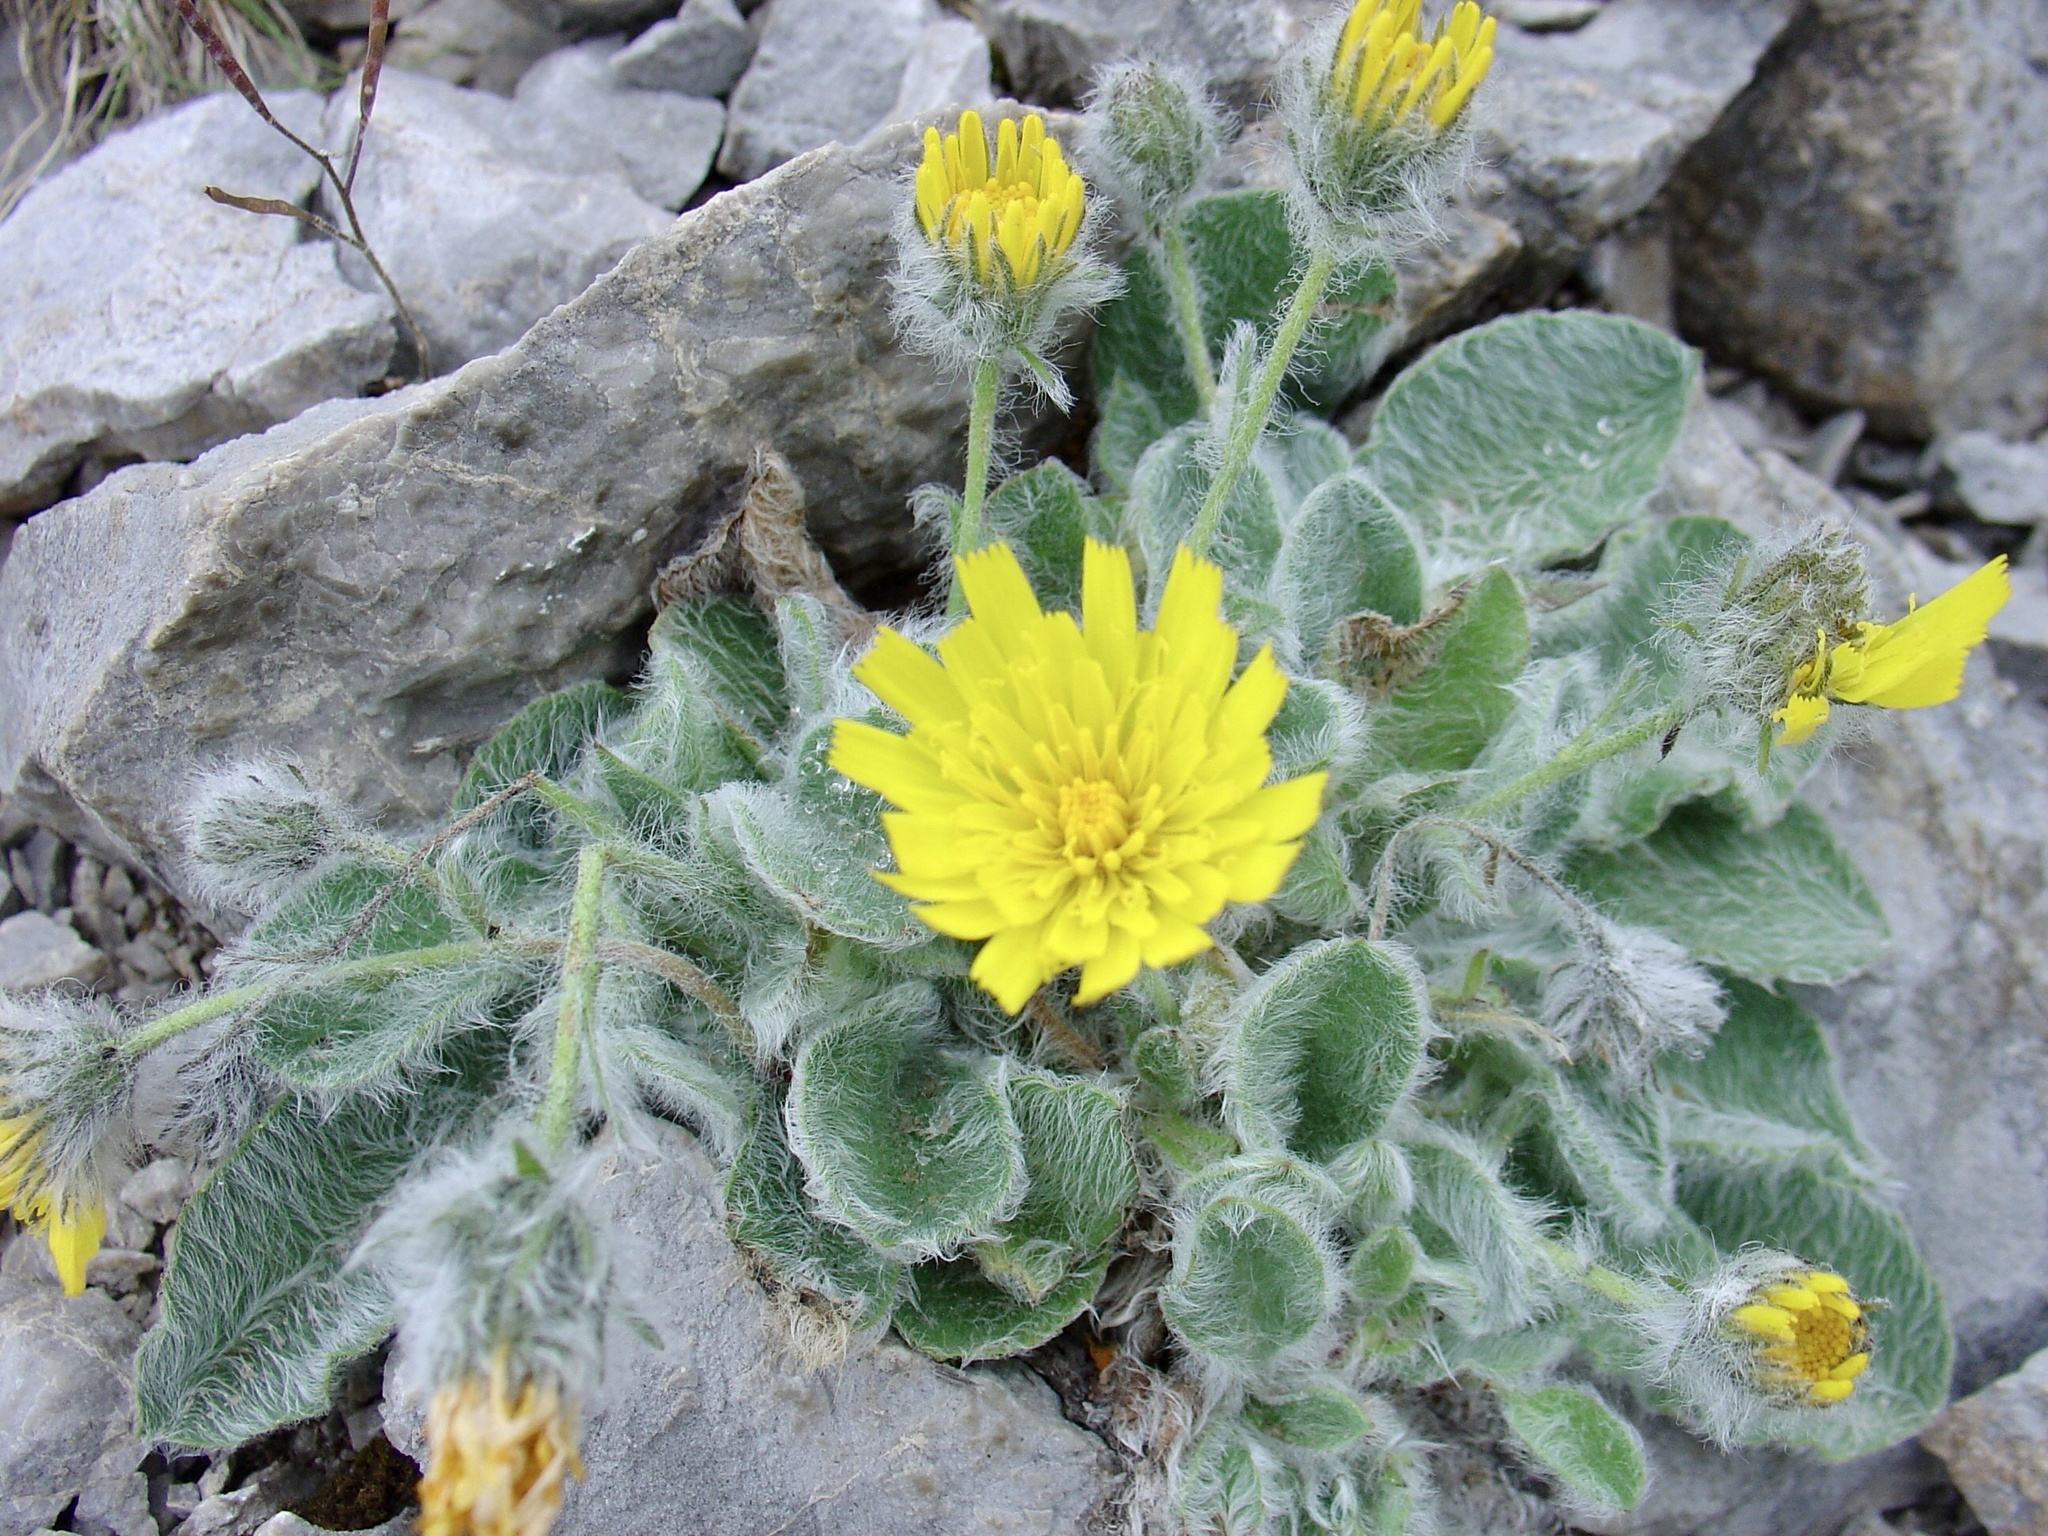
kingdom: Plantae
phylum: Tracheophyta
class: Magnoliopsida
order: Asterales
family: Asteraceae
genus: Hieracium
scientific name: Hieracium villosum
